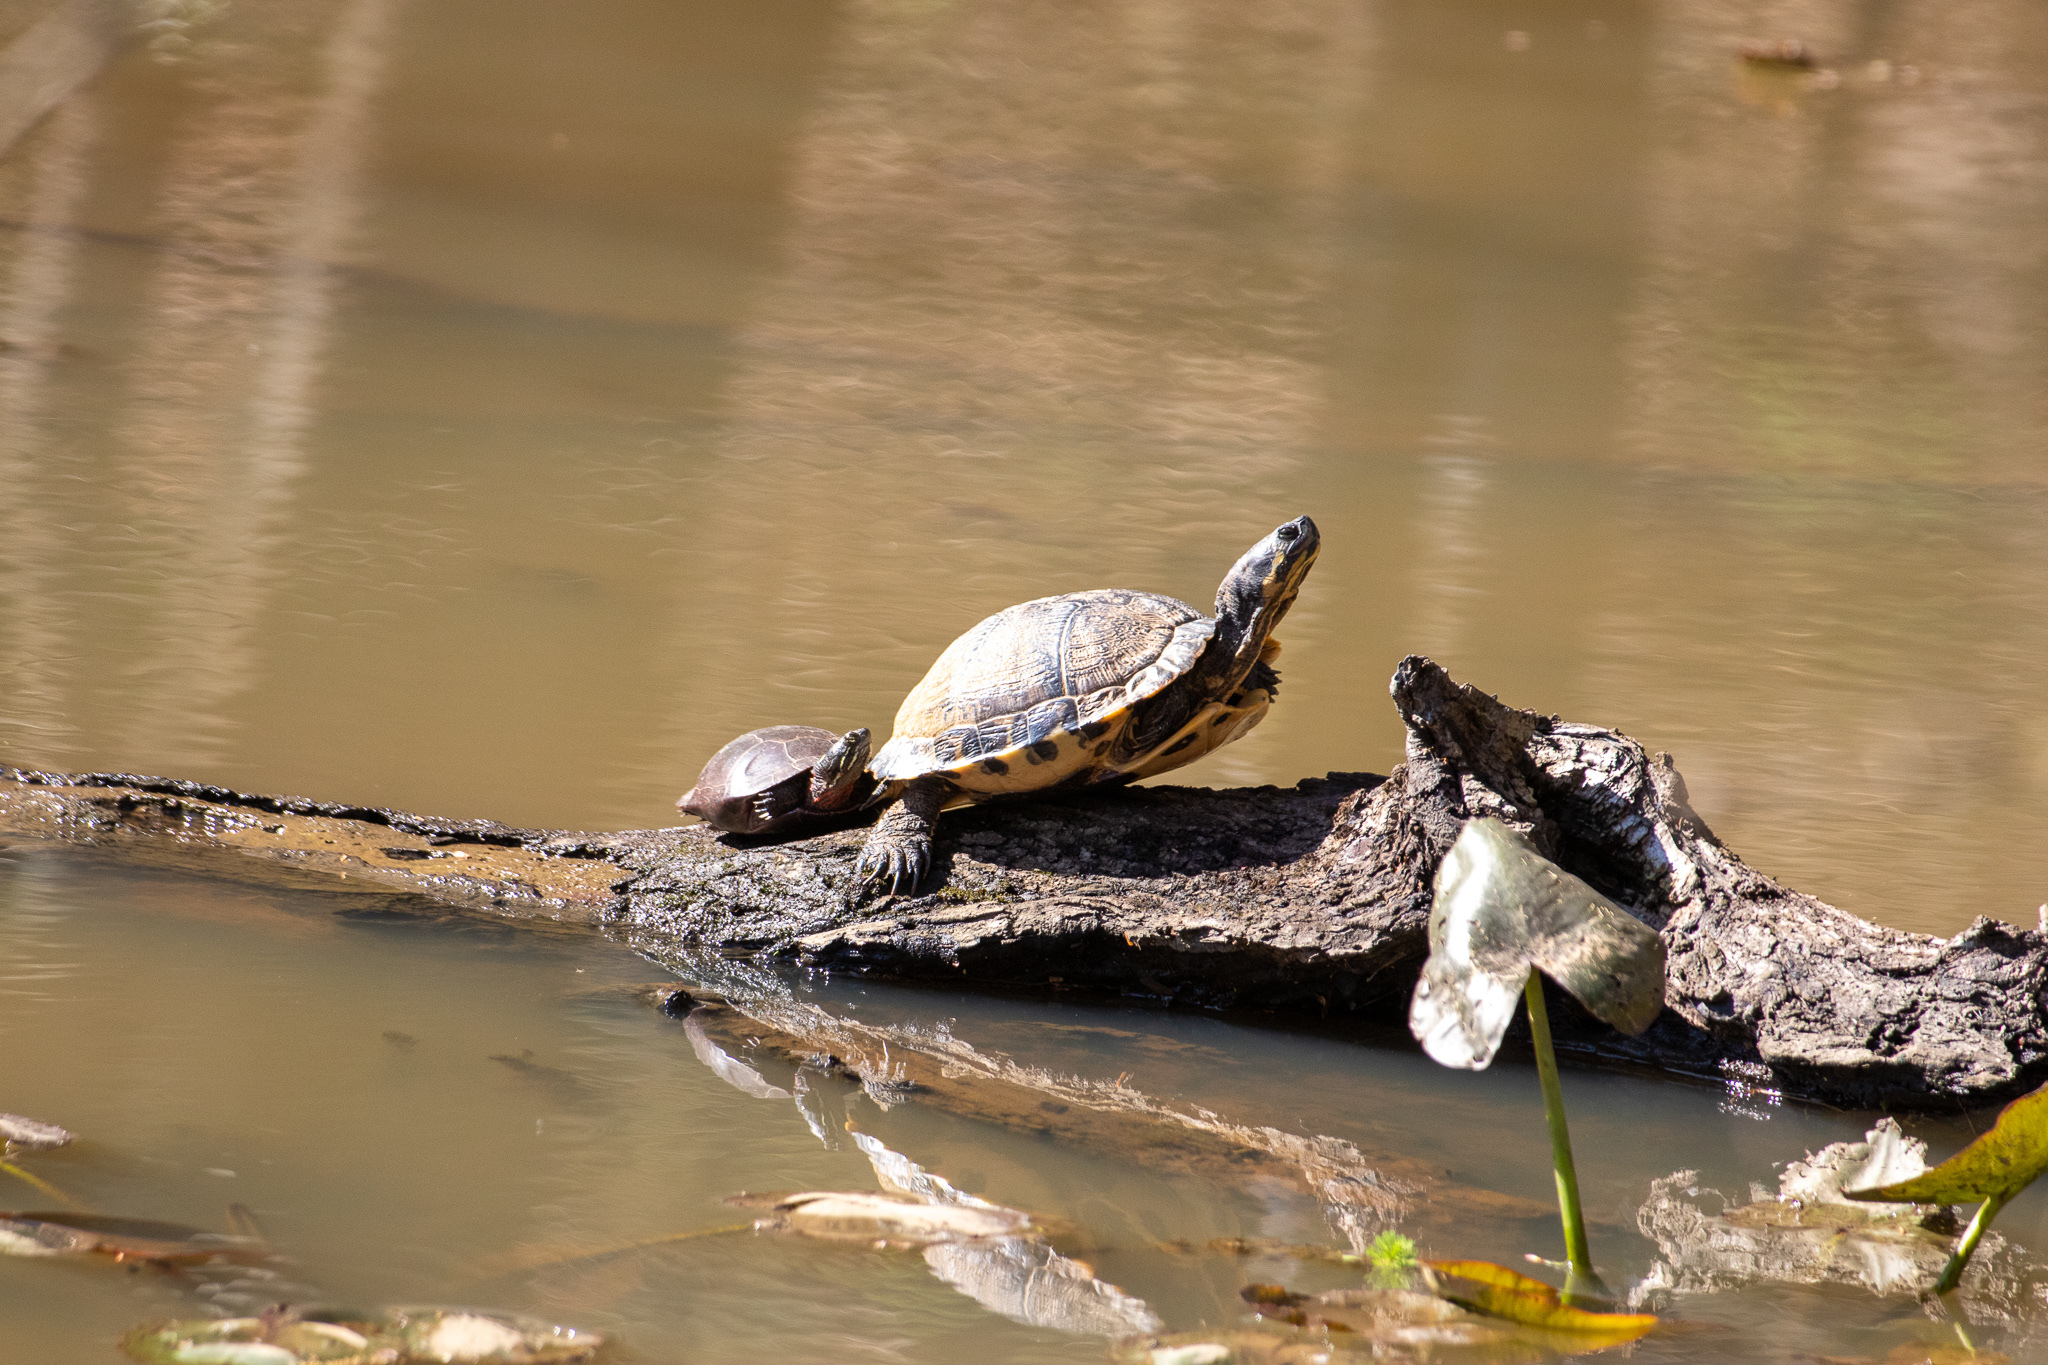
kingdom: Animalia
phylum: Chordata
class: Testudines
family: Emydidae
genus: Trachemys
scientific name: Trachemys scripta
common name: Slider
